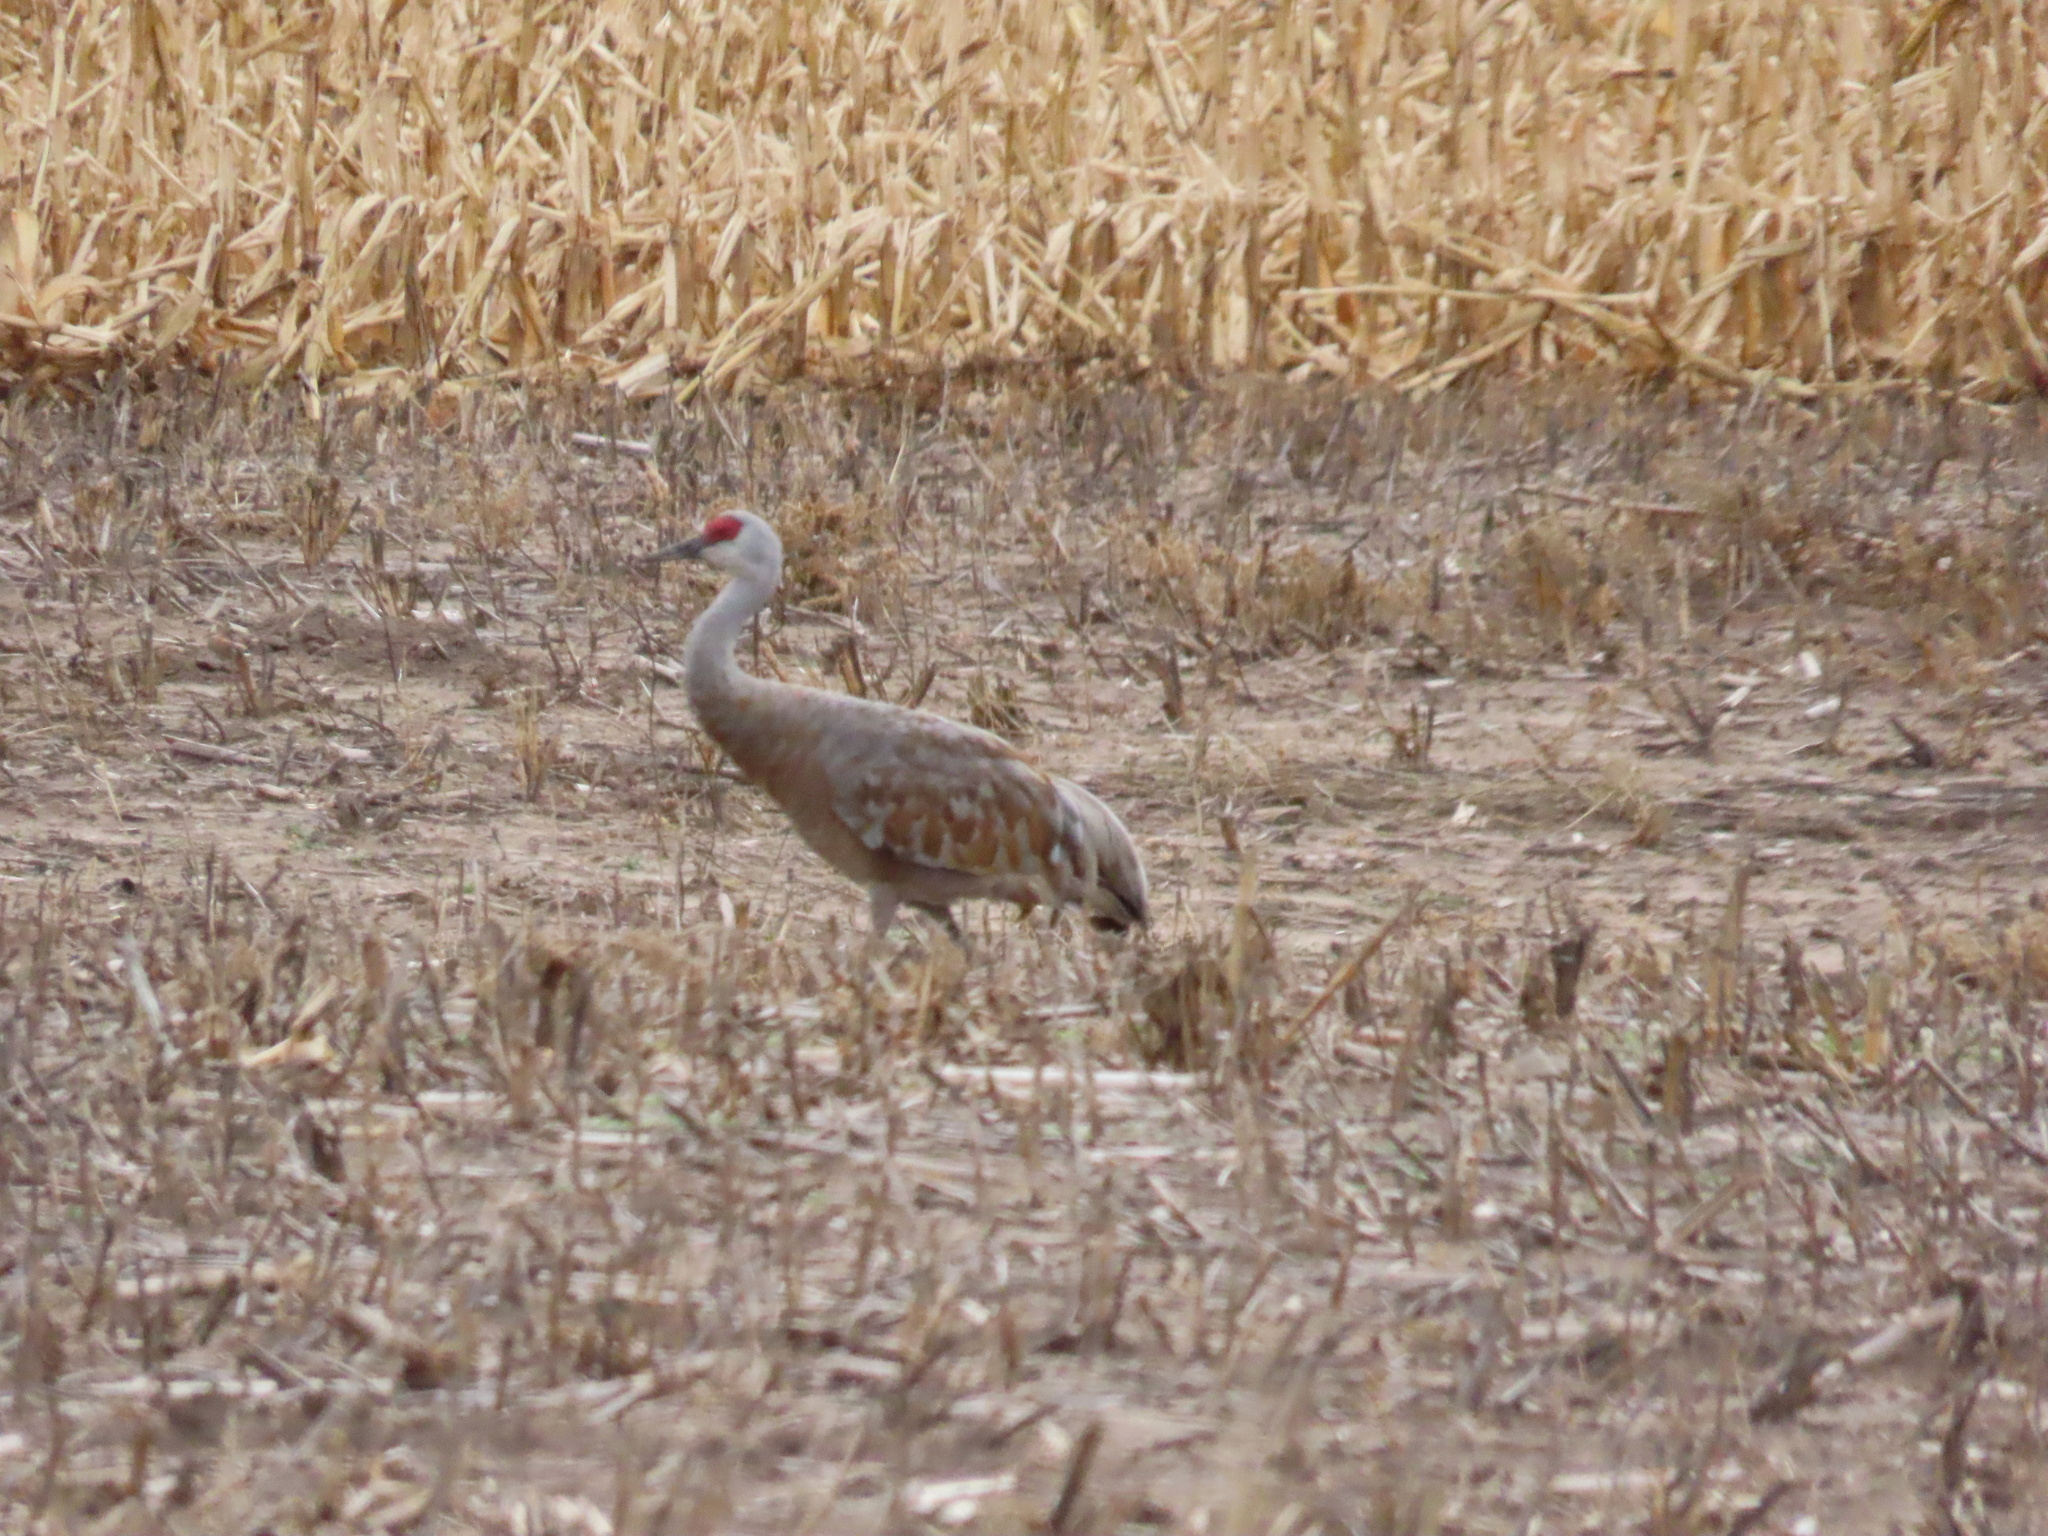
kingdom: Animalia
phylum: Chordata
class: Aves
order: Gruiformes
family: Gruidae
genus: Grus
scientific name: Grus canadensis
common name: Sandhill crane
